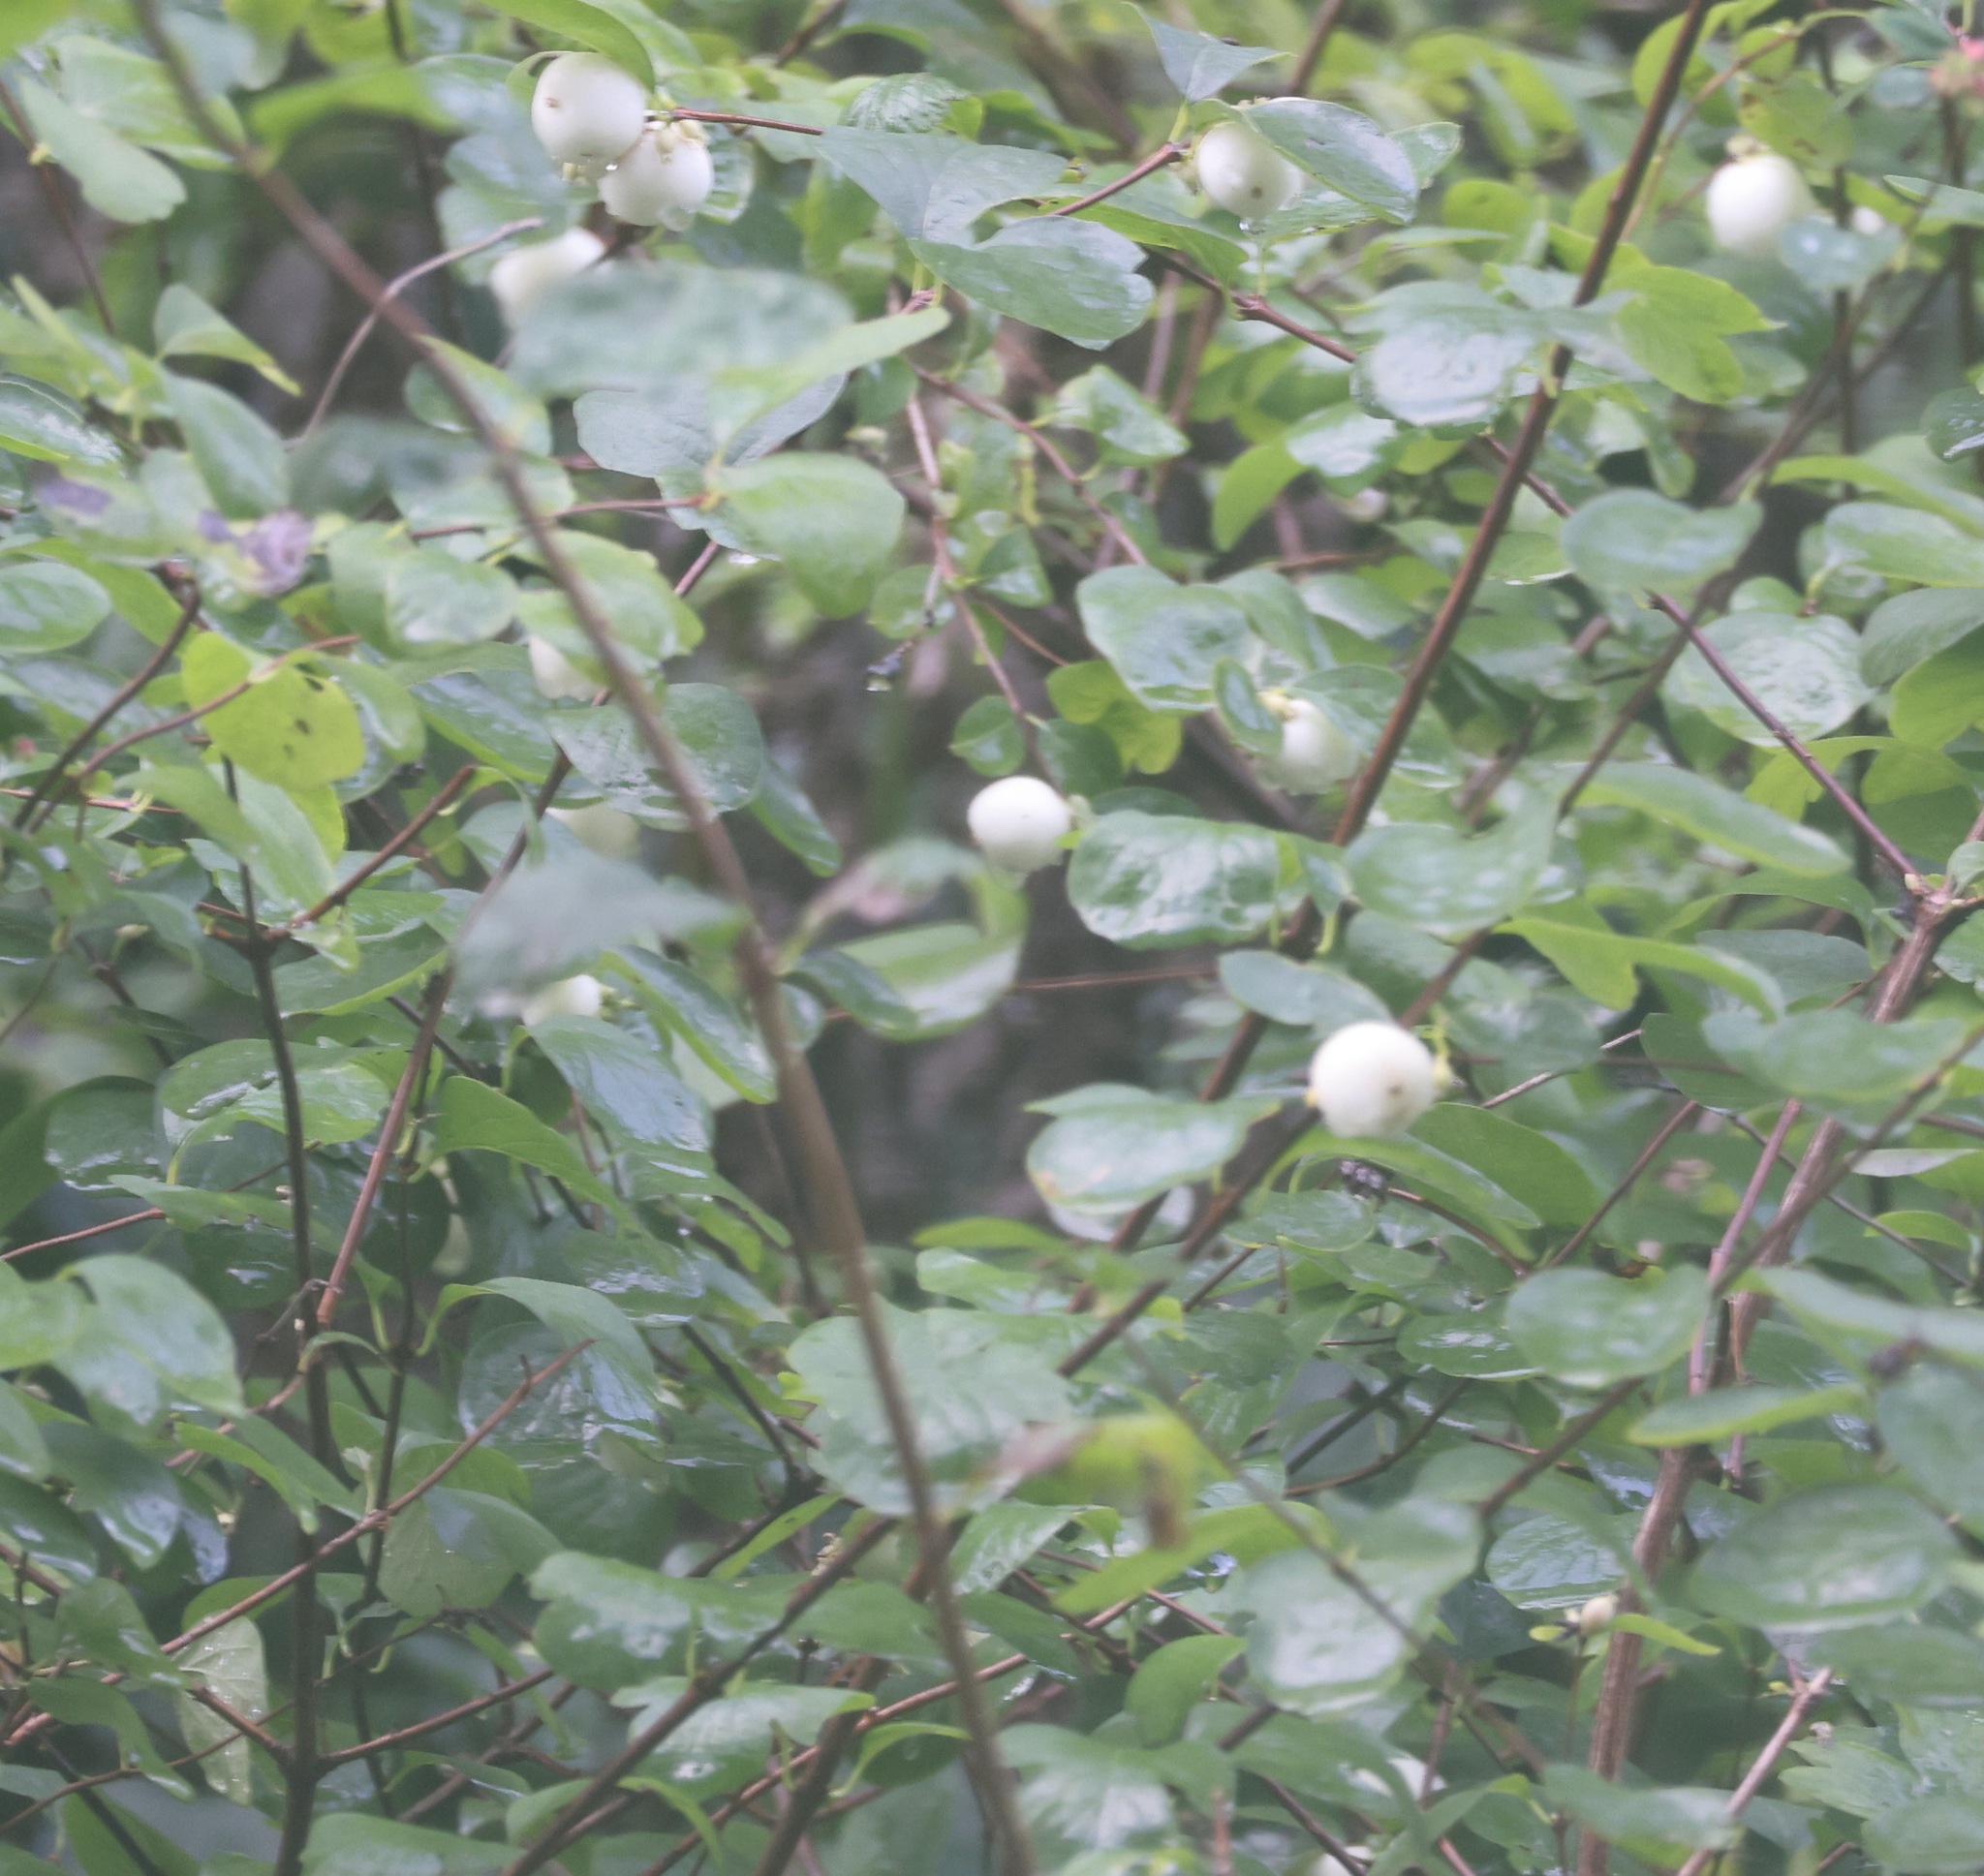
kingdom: Plantae
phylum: Tracheophyta
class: Magnoliopsida
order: Dipsacales
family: Caprifoliaceae
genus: Symphoricarpos
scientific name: Symphoricarpos albus
